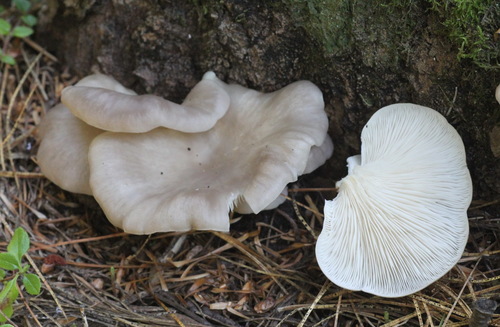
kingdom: Fungi
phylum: Basidiomycota
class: Agaricomycetes
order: Agaricales
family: Pleurotaceae
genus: Pleurotus
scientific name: Pleurotus ostreatus
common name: Oyster mushroom
